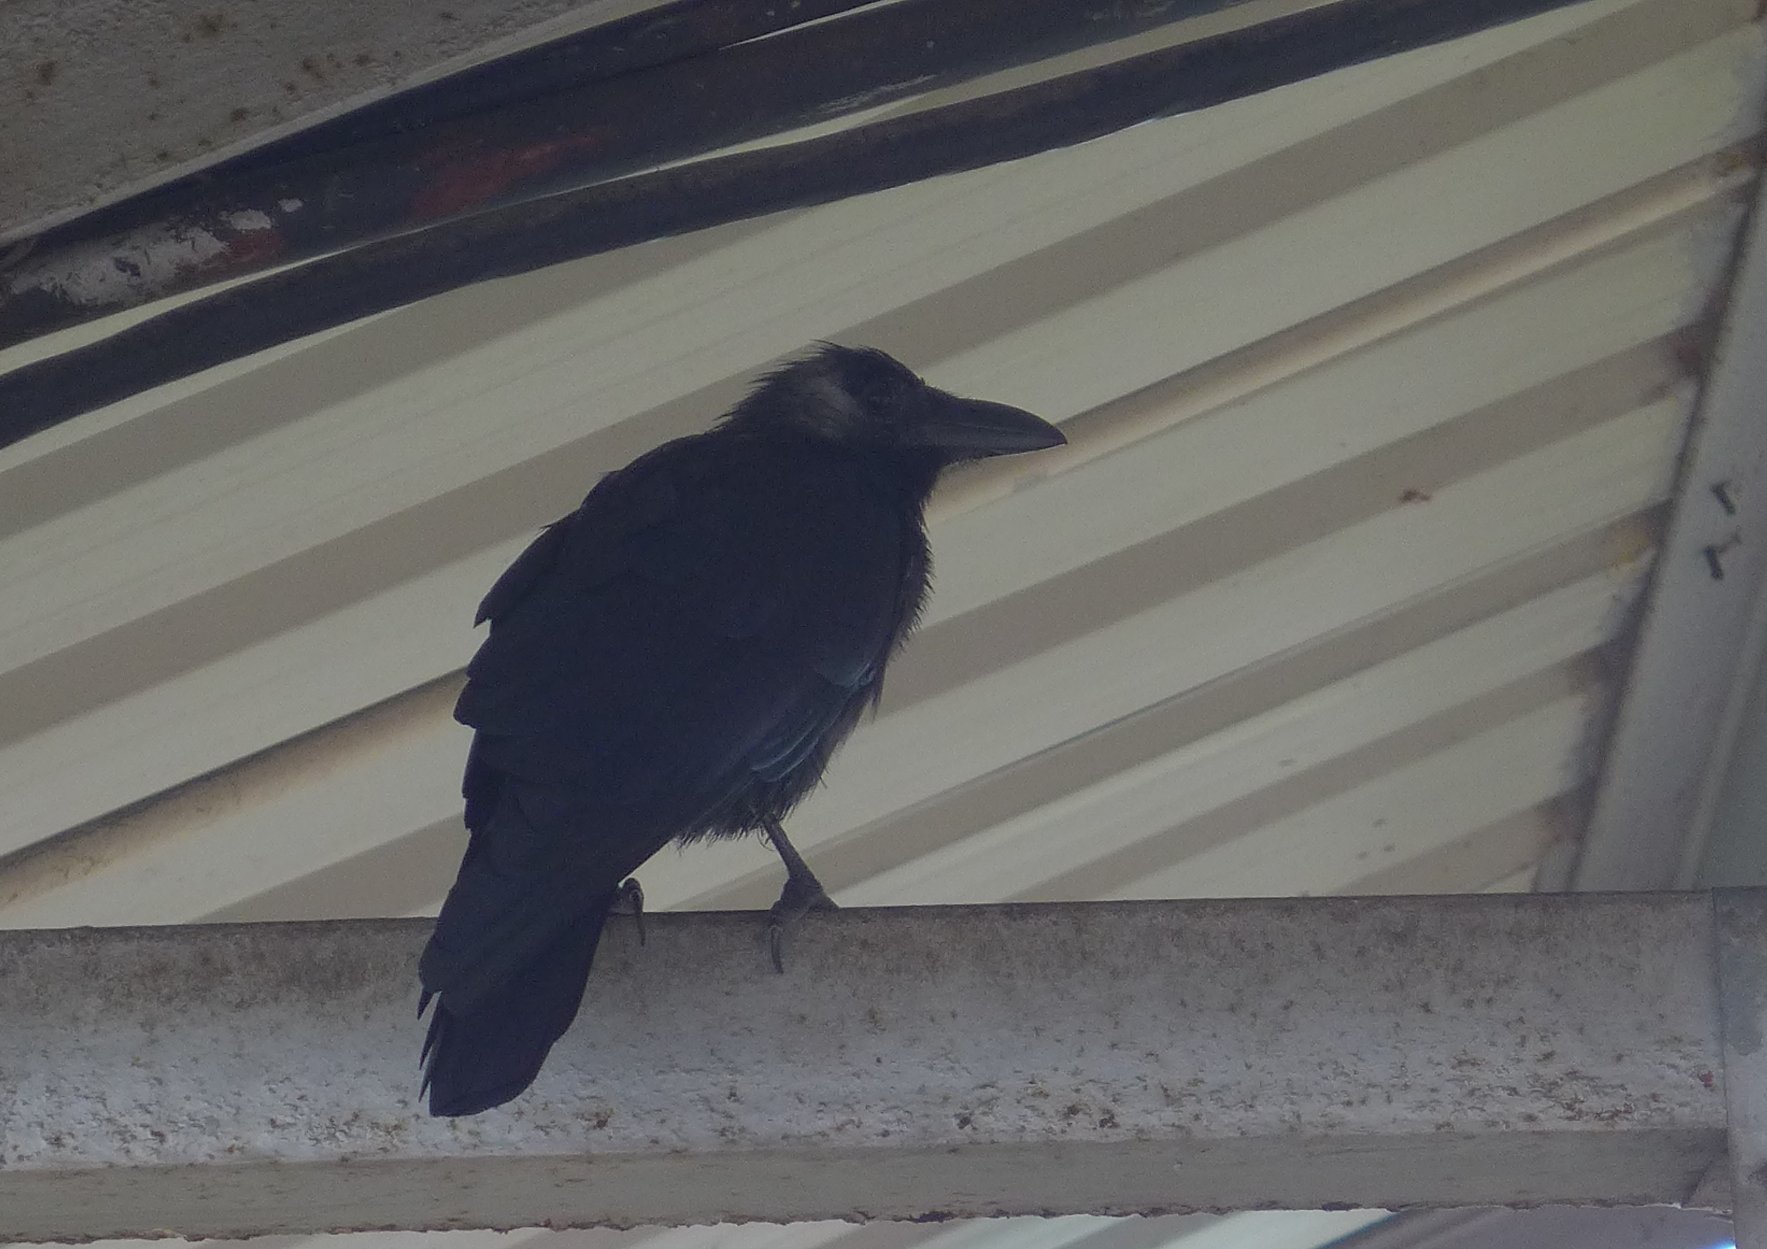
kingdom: Animalia
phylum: Chordata
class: Aves
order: Passeriformes
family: Corvidae
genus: Corvus
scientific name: Corvus splendens
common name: House crow
